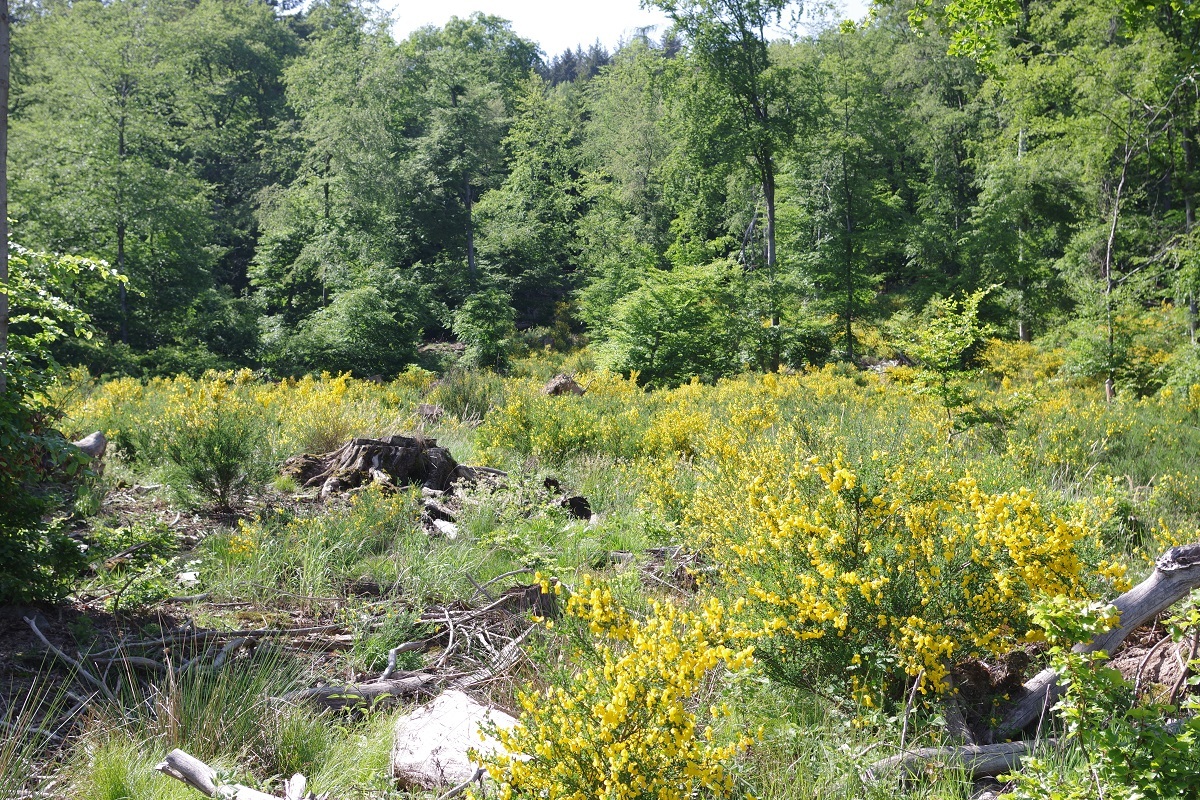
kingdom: Plantae
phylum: Tracheophyta
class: Magnoliopsida
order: Fabales
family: Fabaceae
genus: Cytisus
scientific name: Cytisus scoparius
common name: Scotch broom
